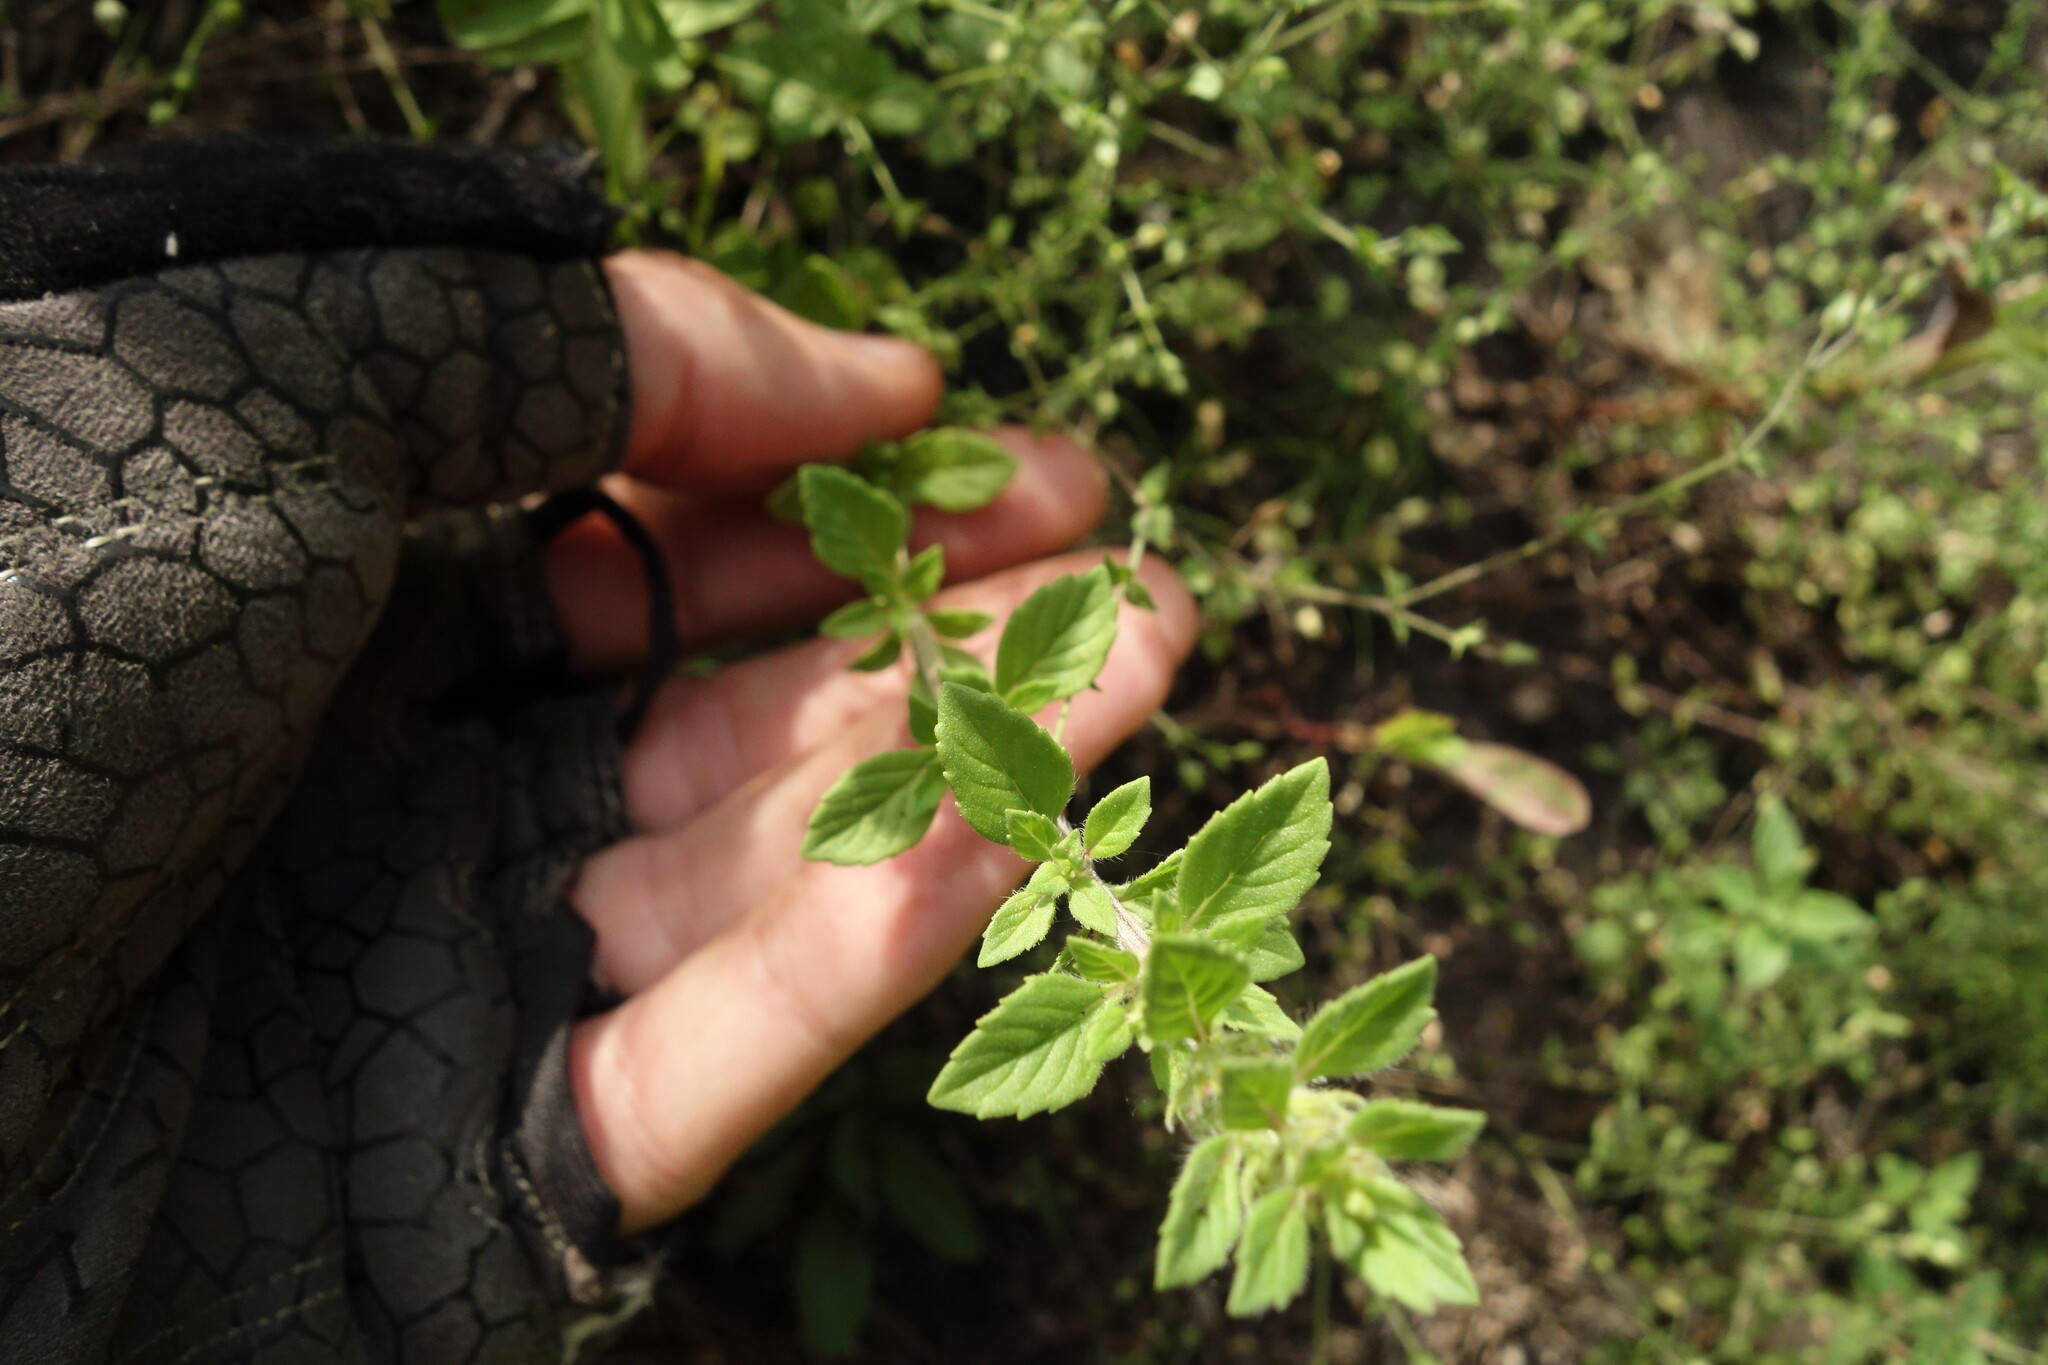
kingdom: Plantae
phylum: Tracheophyta
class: Magnoliopsida
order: Lamiales
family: Lamiaceae
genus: Clinopodium
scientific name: Clinopodium acinos
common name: Basil thyme
